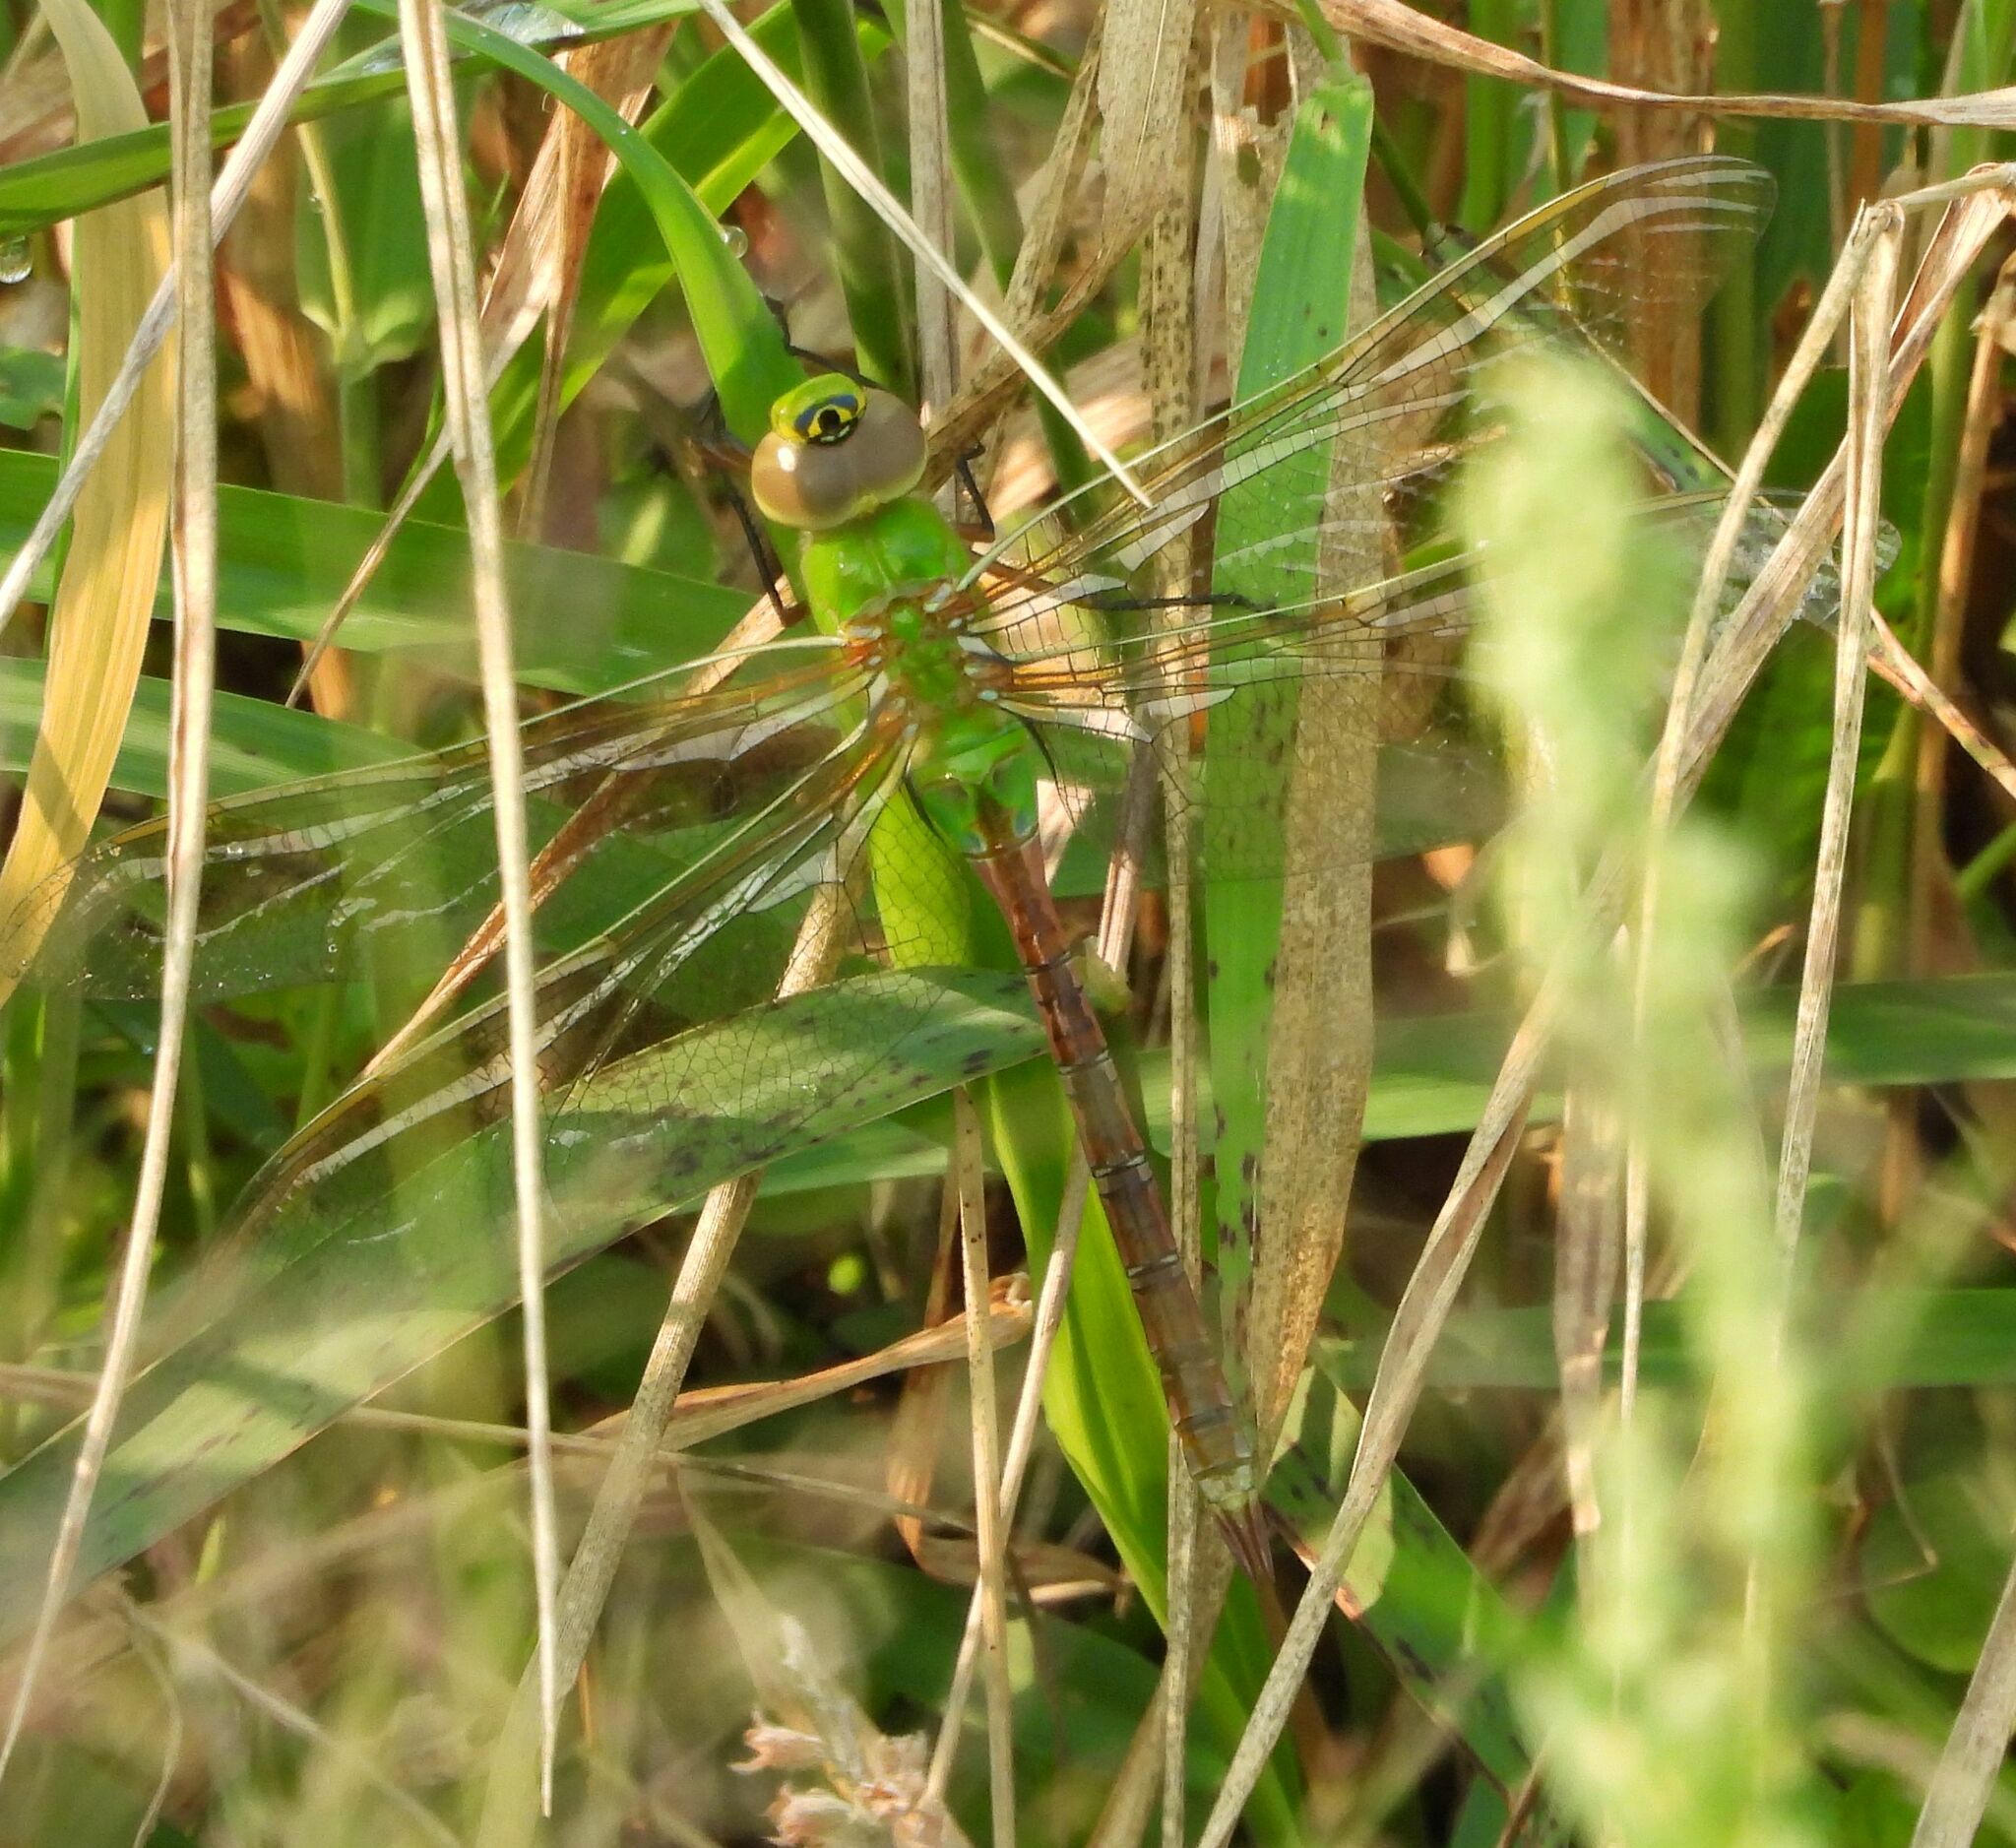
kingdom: Animalia
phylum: Arthropoda
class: Insecta
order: Odonata
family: Aeshnidae
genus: Anax
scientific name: Anax junius
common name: Common green darner
